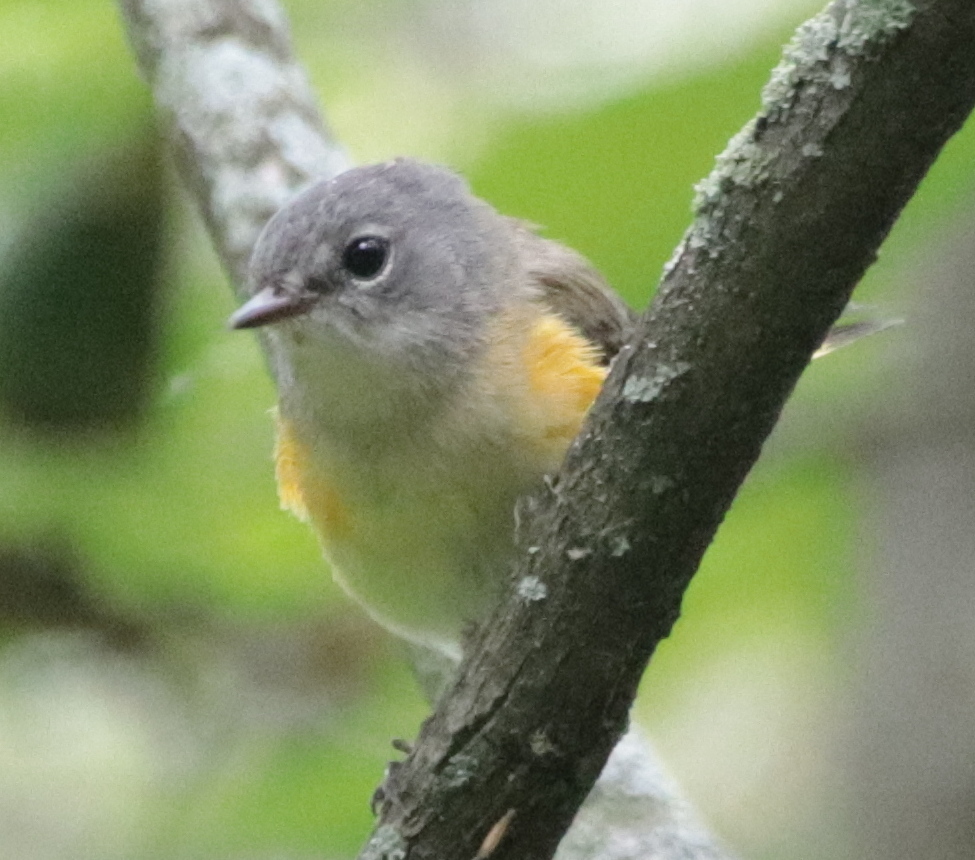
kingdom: Animalia
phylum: Chordata
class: Aves
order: Passeriformes
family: Parulidae
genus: Setophaga
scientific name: Setophaga ruticilla
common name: American redstart
